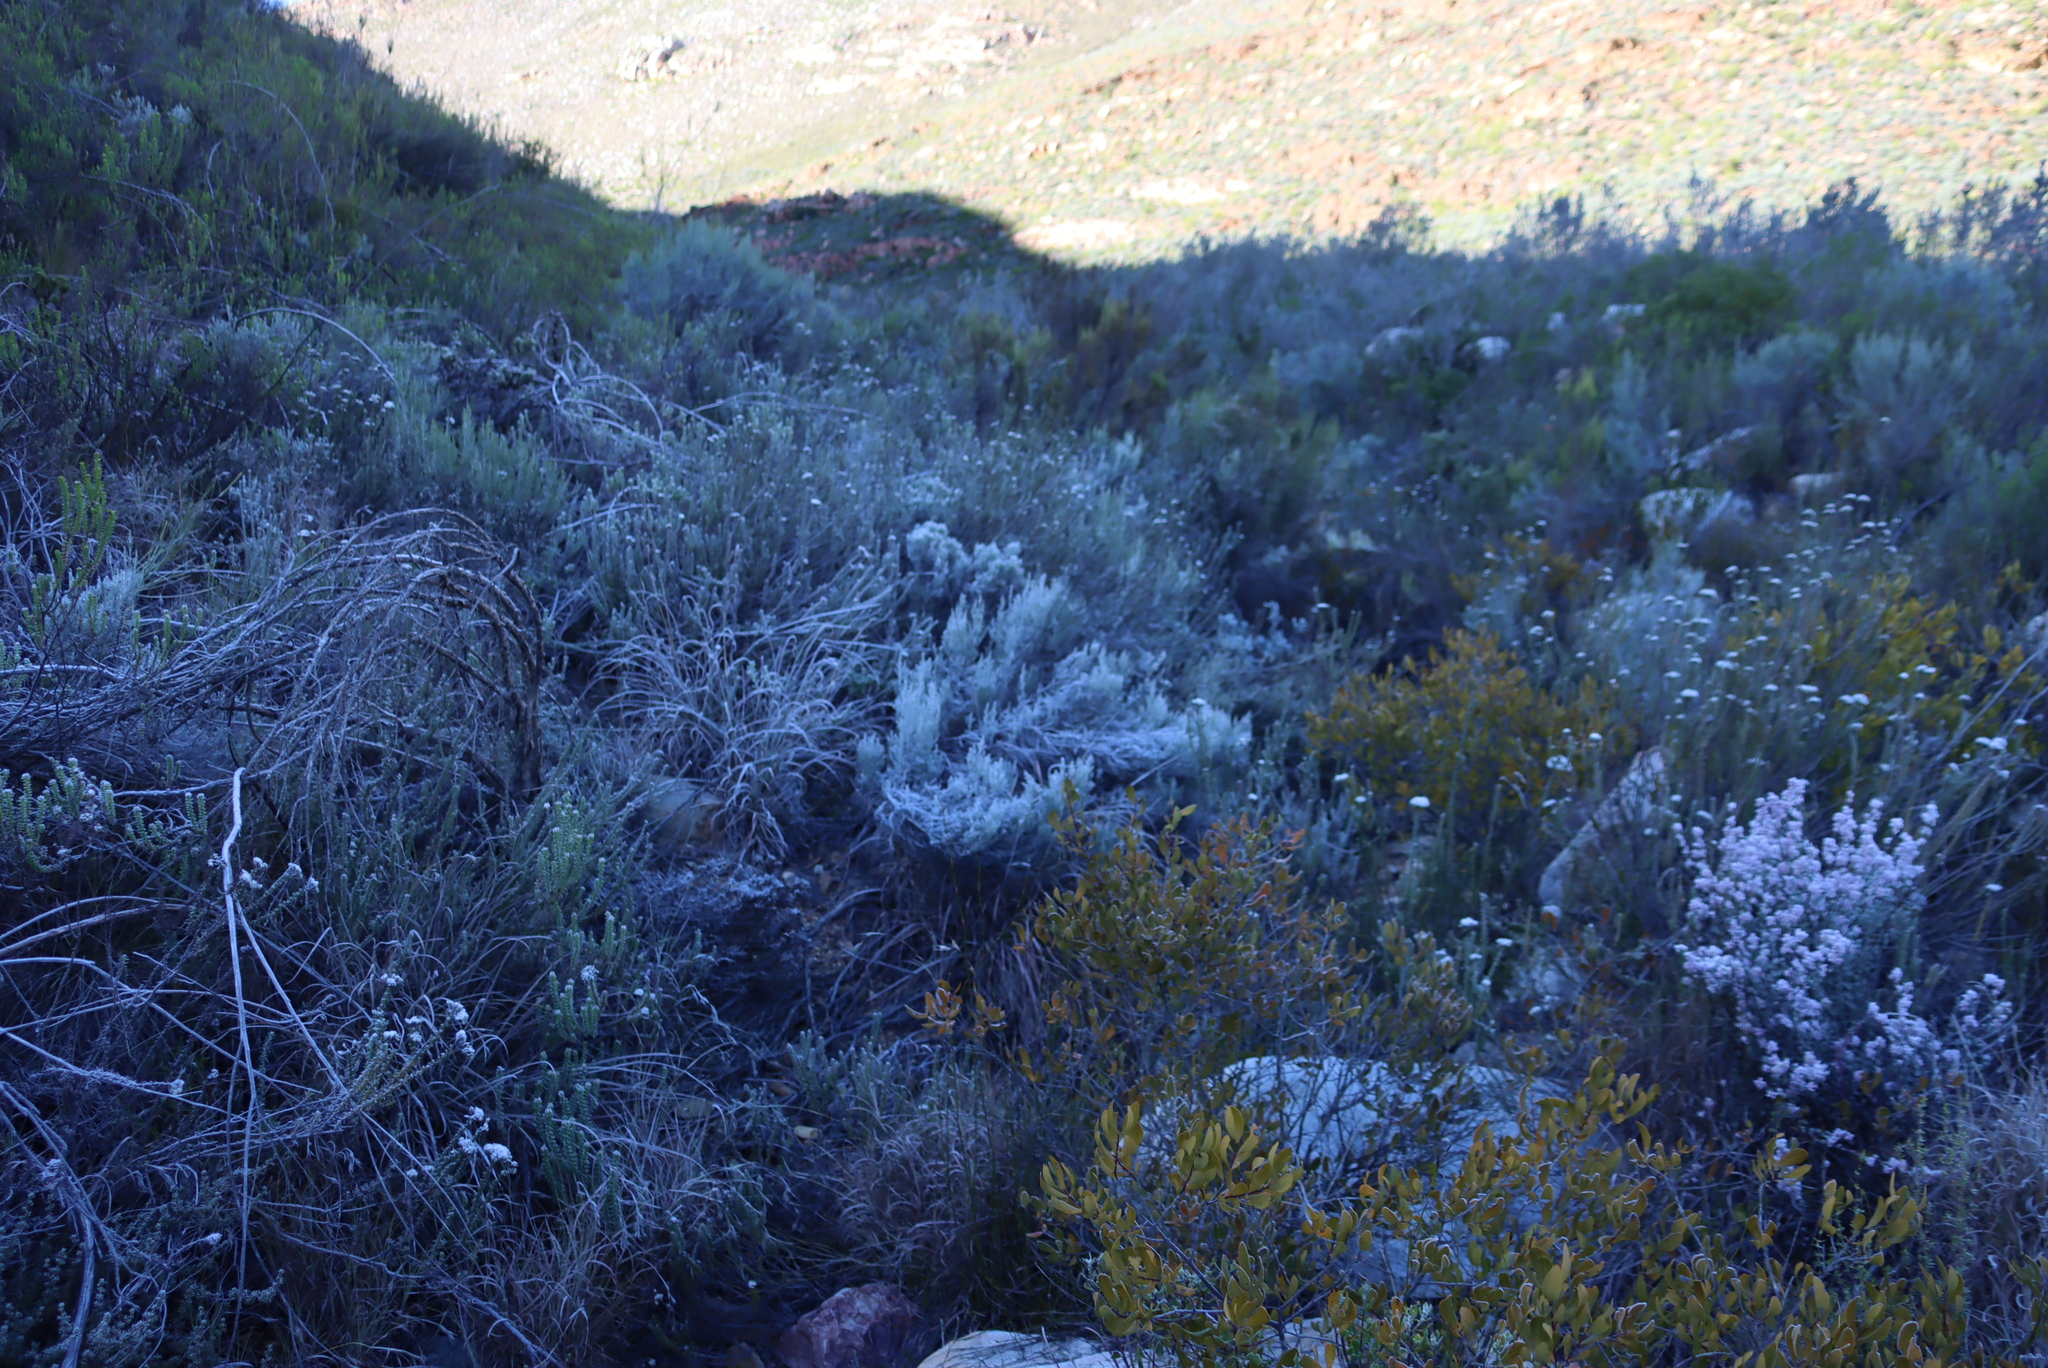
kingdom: Plantae
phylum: Tracheophyta
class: Magnoliopsida
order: Asterales
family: Asteraceae
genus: Dicerothamnus
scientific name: Dicerothamnus rhinocerotis
